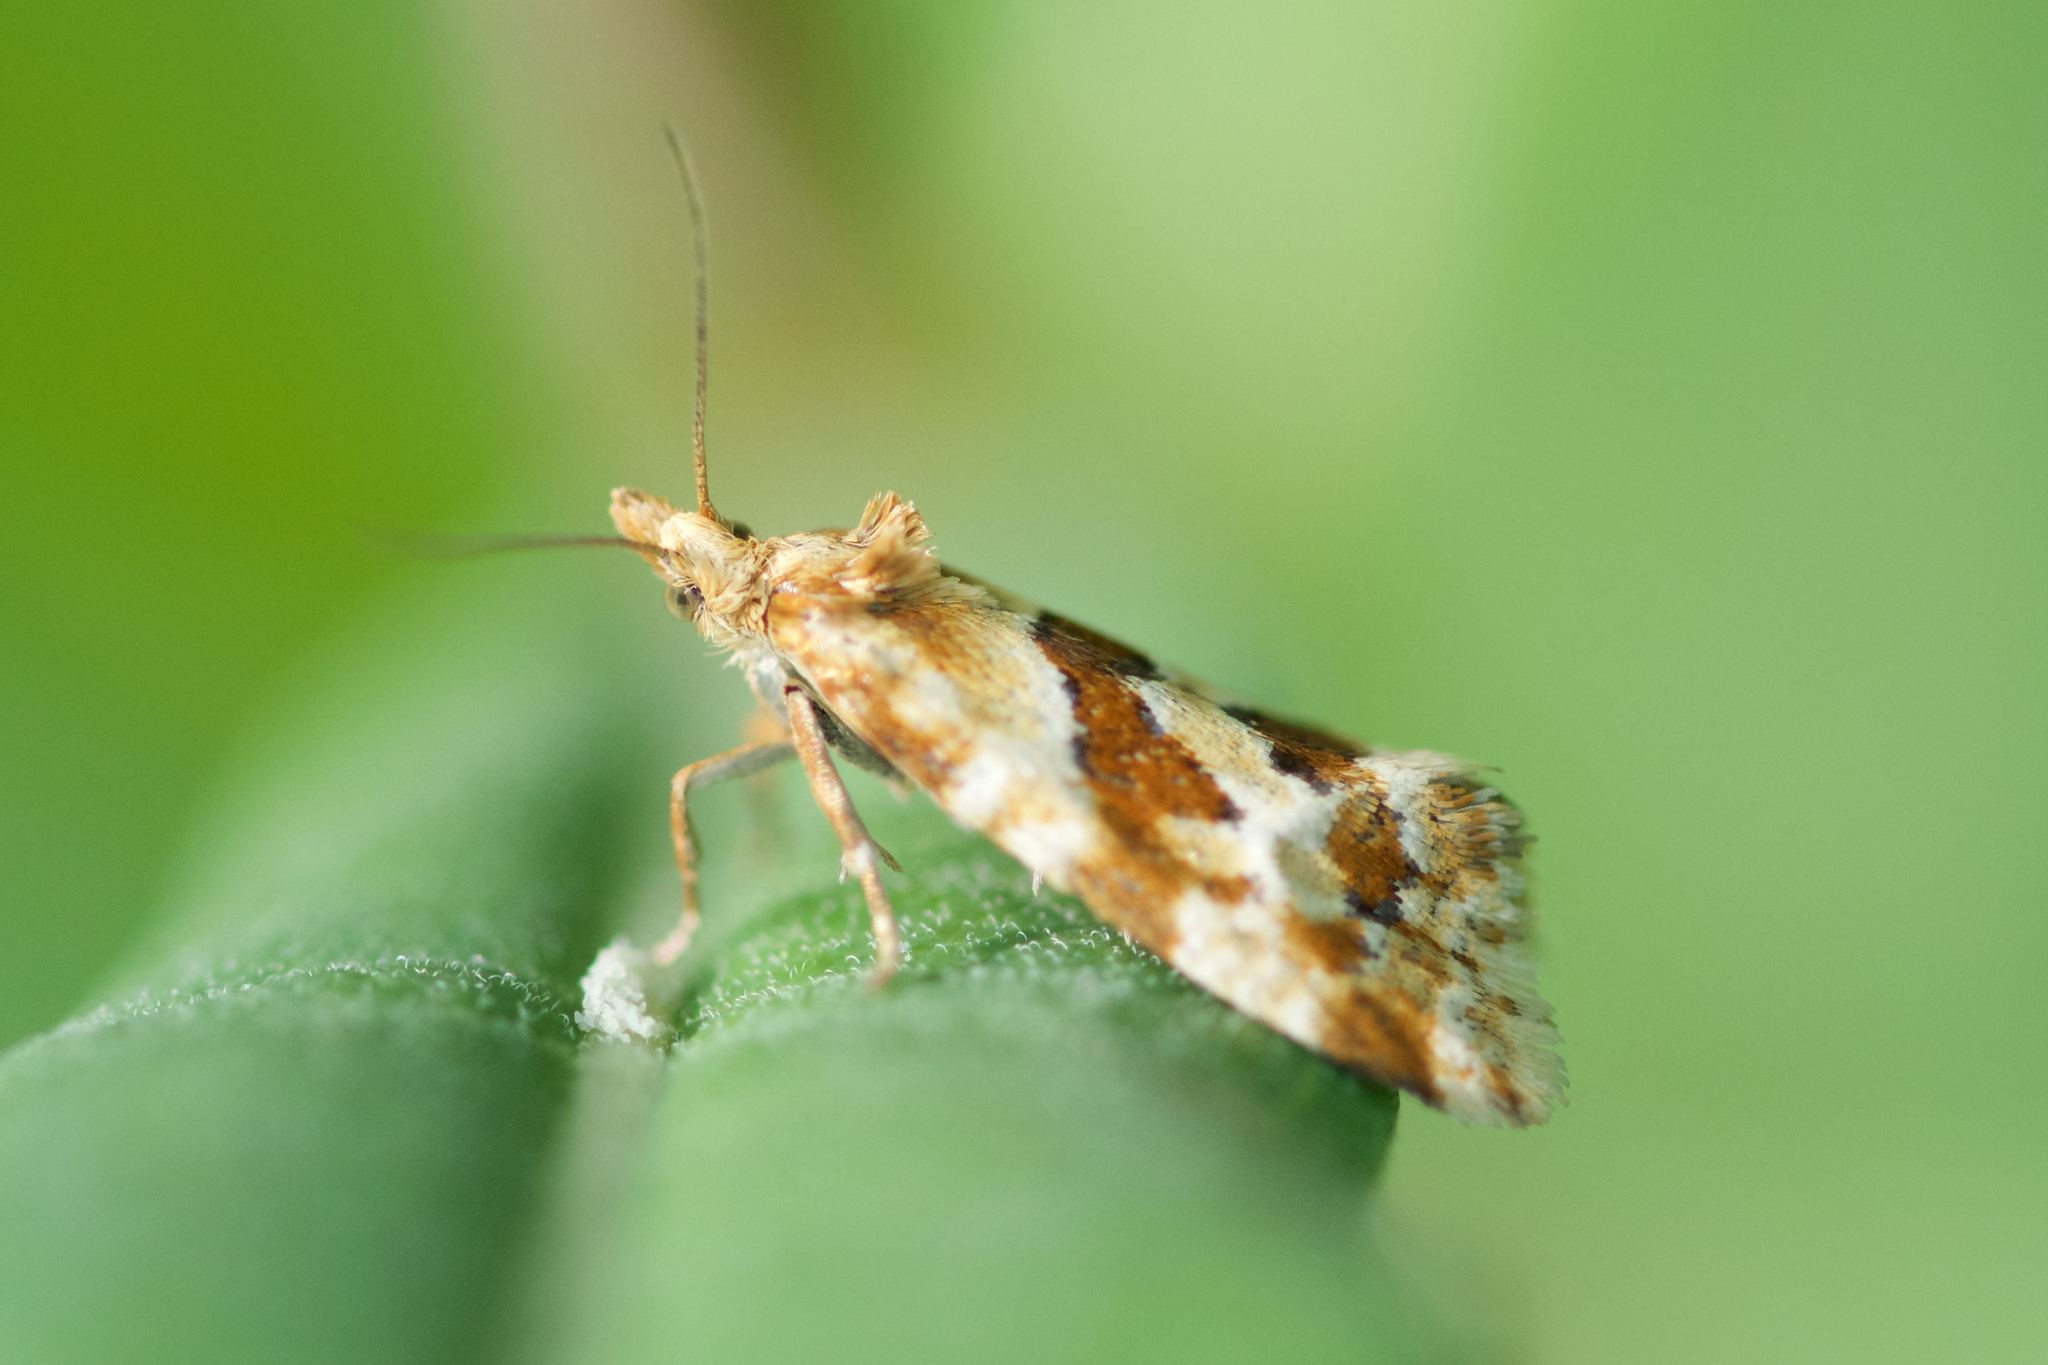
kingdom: Animalia
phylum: Arthropoda
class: Insecta
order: Lepidoptera
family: Tortricidae
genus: Aethes
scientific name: Aethes deutschiana
